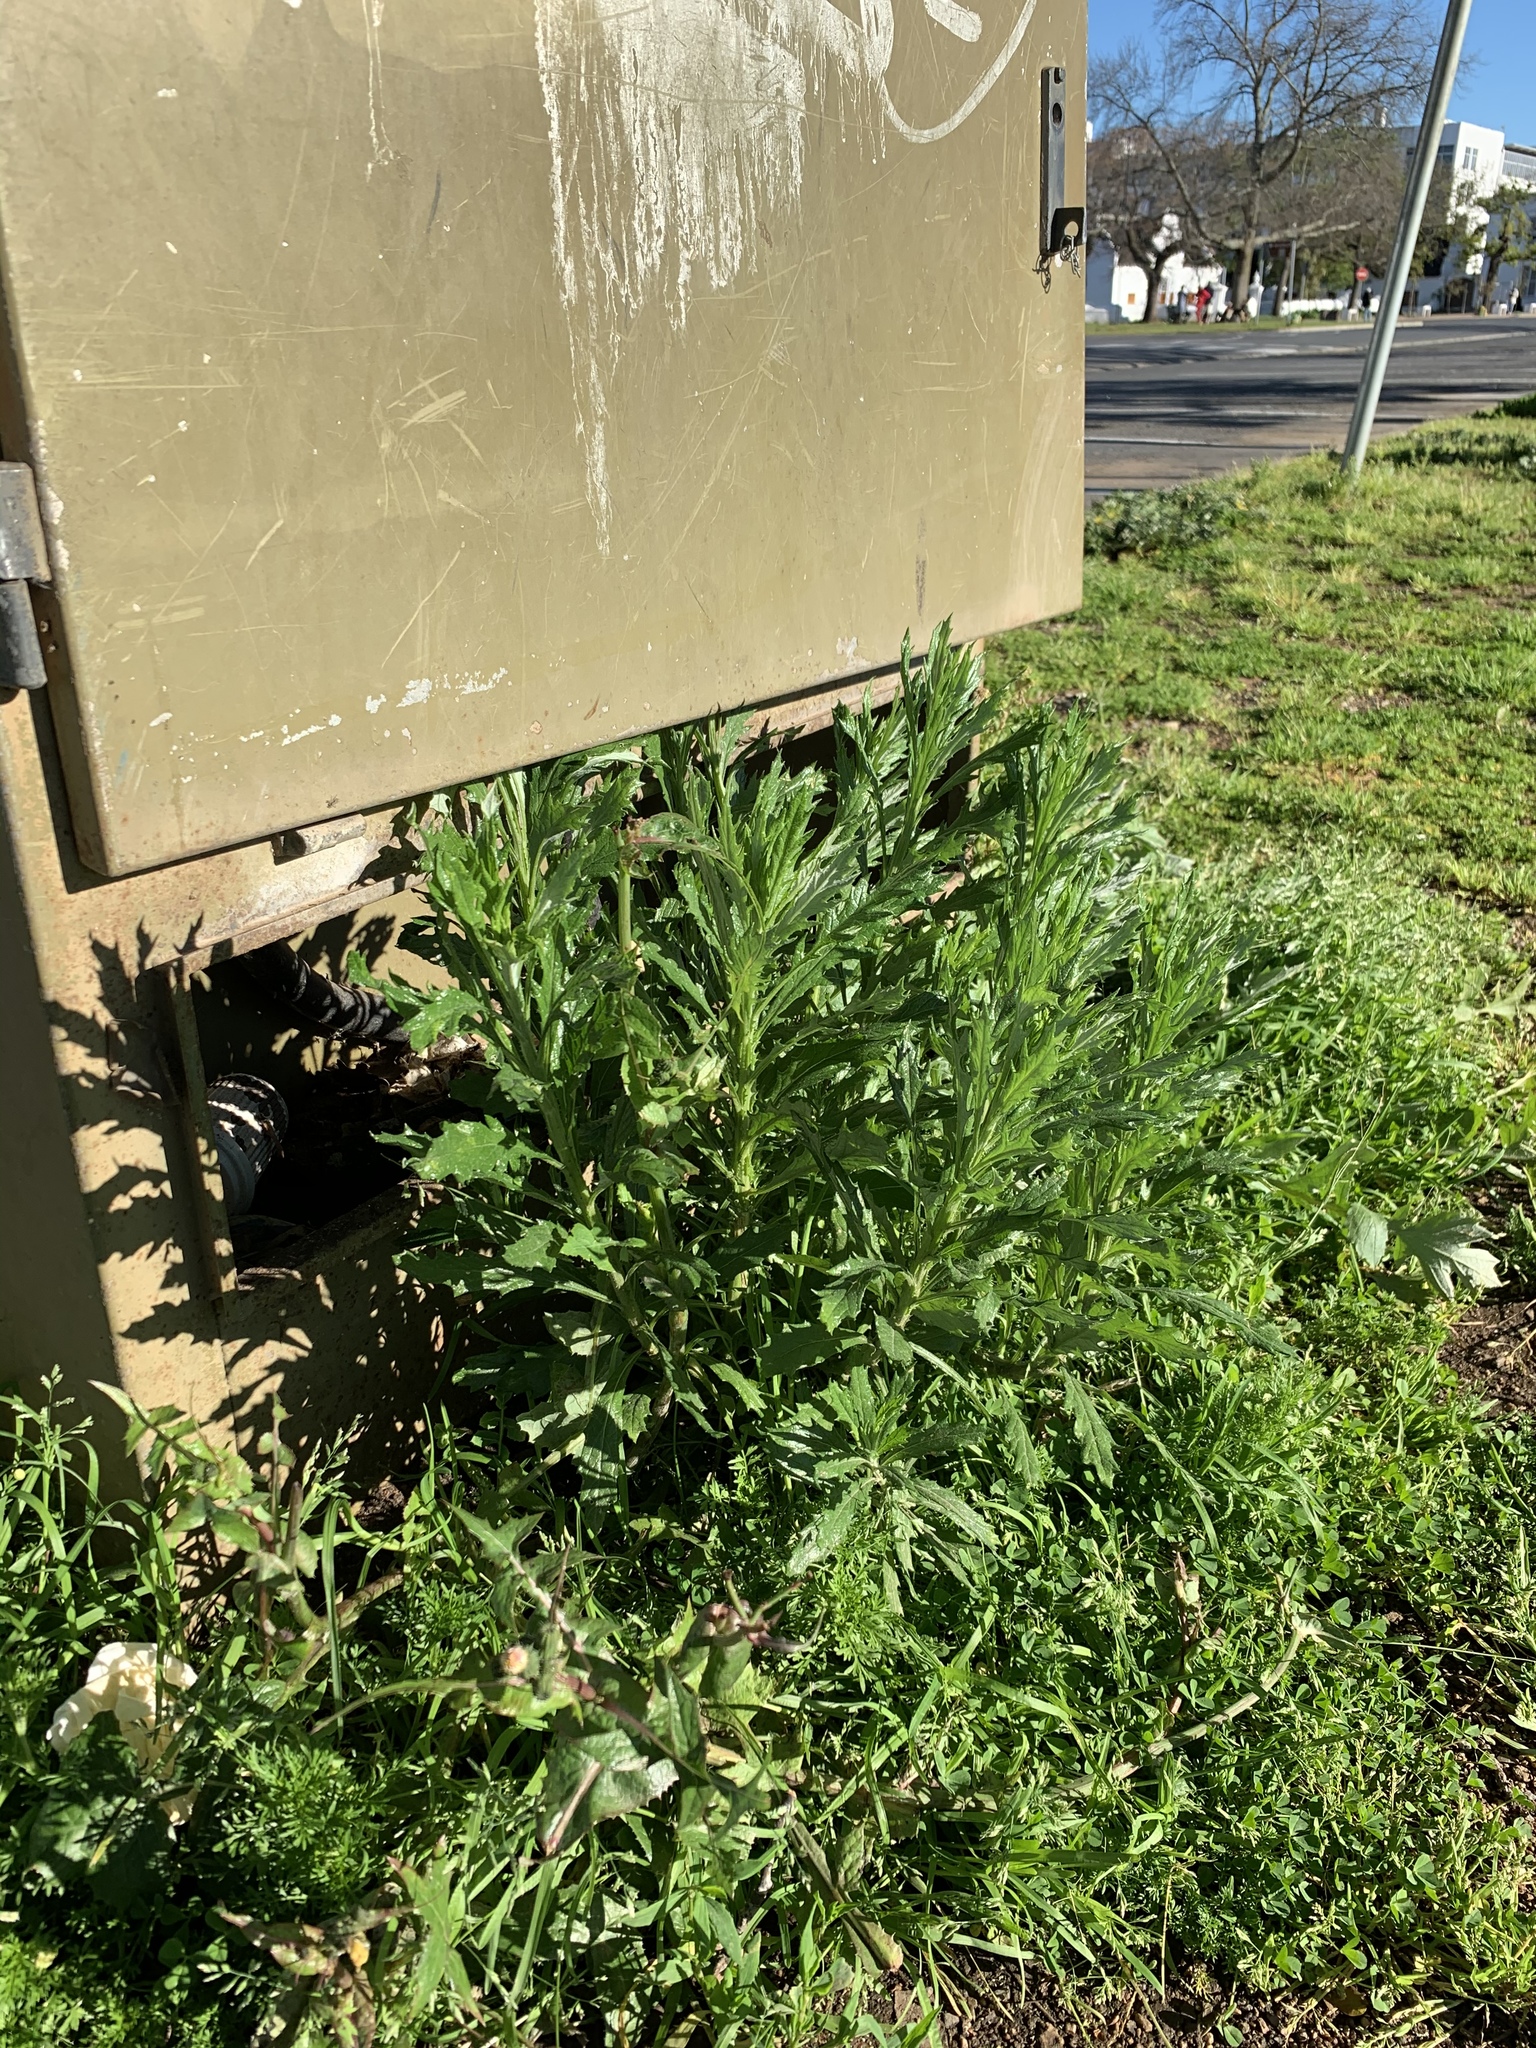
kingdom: Plantae
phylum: Tracheophyta
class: Magnoliopsida
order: Asterales
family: Asteraceae
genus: Senecio
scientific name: Senecio pterophorus
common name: Shoddy ragwort
